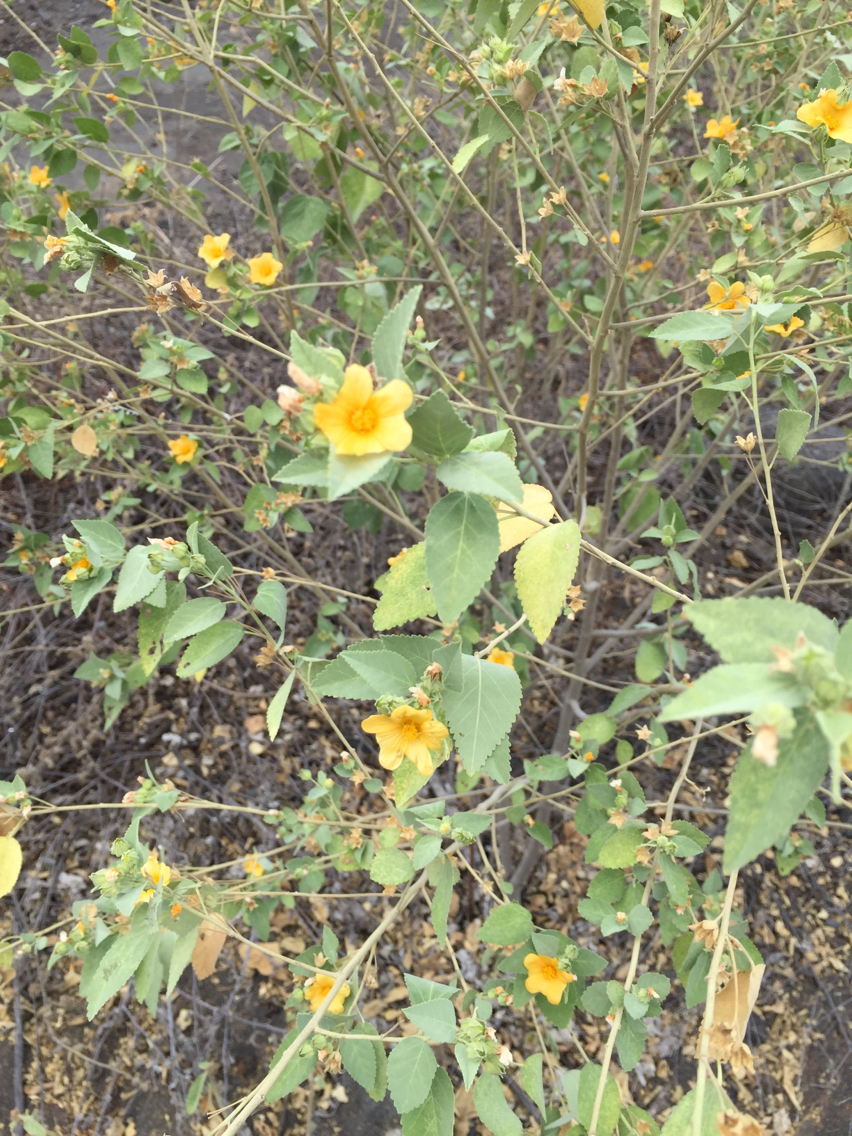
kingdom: Plantae
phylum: Tracheophyta
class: Magnoliopsida
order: Malvales
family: Malvaceae
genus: Sida
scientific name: Sida fallax
